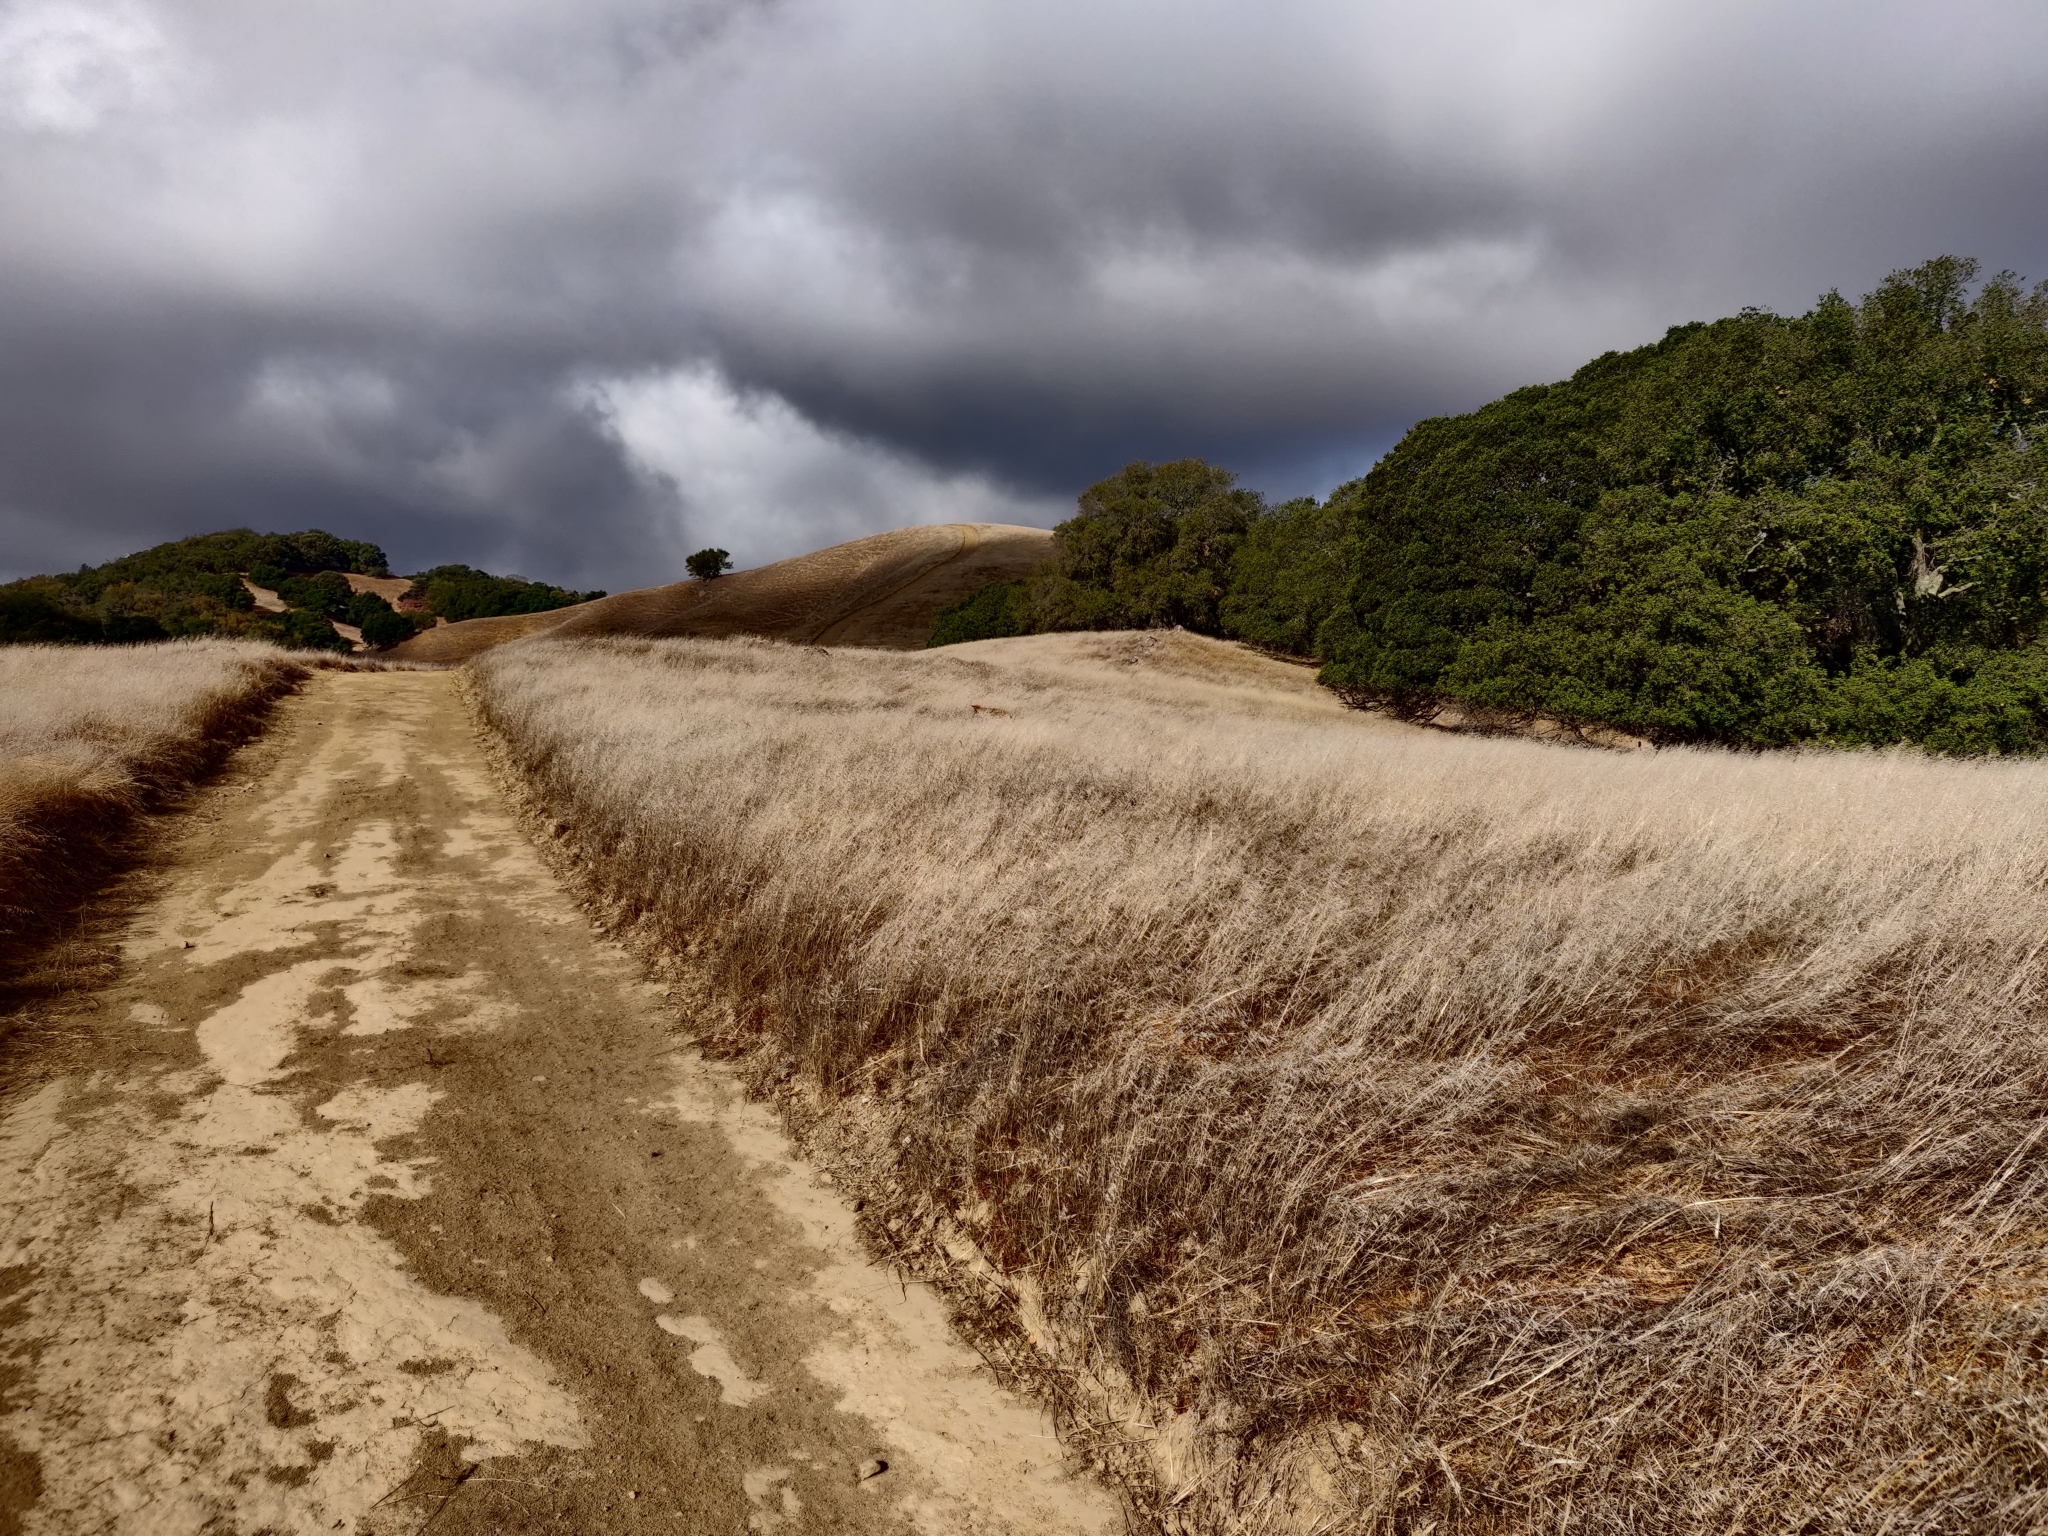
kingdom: Animalia
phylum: Chordata
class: Mammalia
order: Carnivora
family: Canidae
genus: Canis
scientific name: Canis latrans
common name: Coyote
